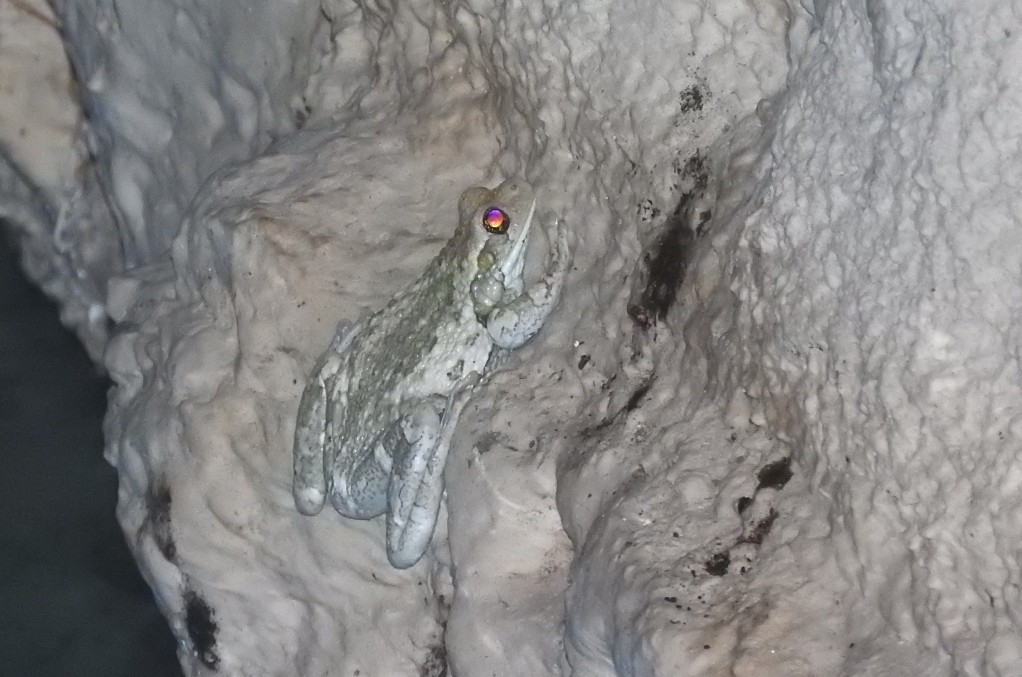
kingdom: Animalia
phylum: Chordata
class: Amphibia
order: Anura
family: Hylidae
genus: Trachycephalus
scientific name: Trachycephalus vermiculatus
